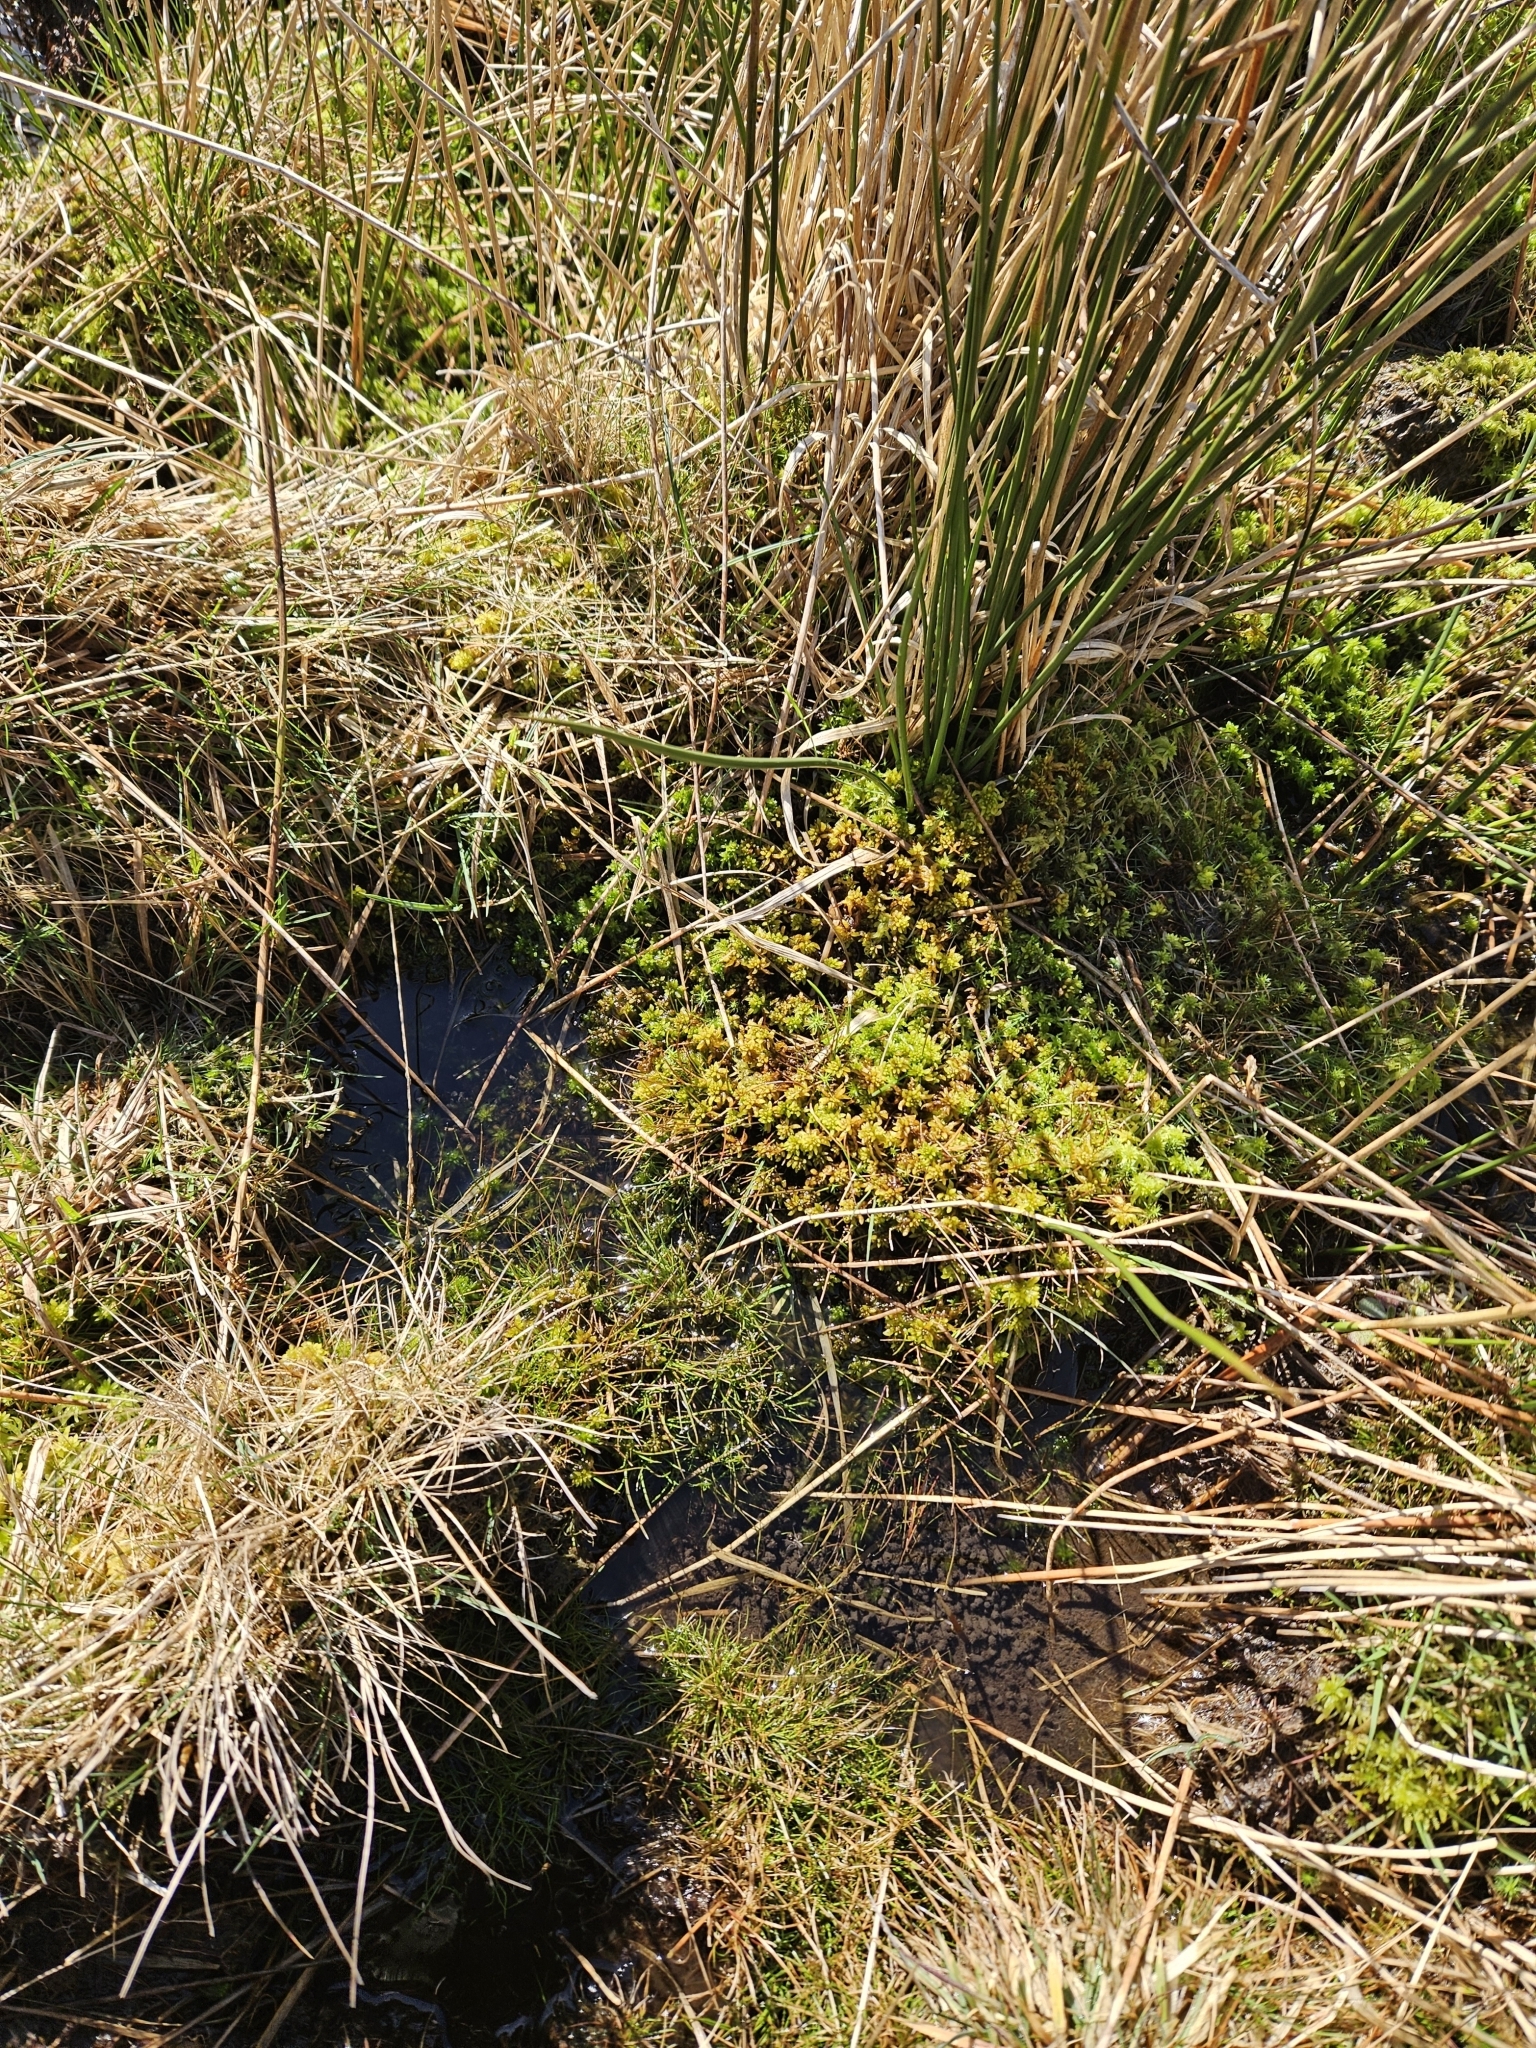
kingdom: Plantae
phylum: Bryophyta
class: Sphagnopsida
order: Sphagnales
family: Sphagnaceae
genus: Sphagnum
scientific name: Sphagnum denticulatum
